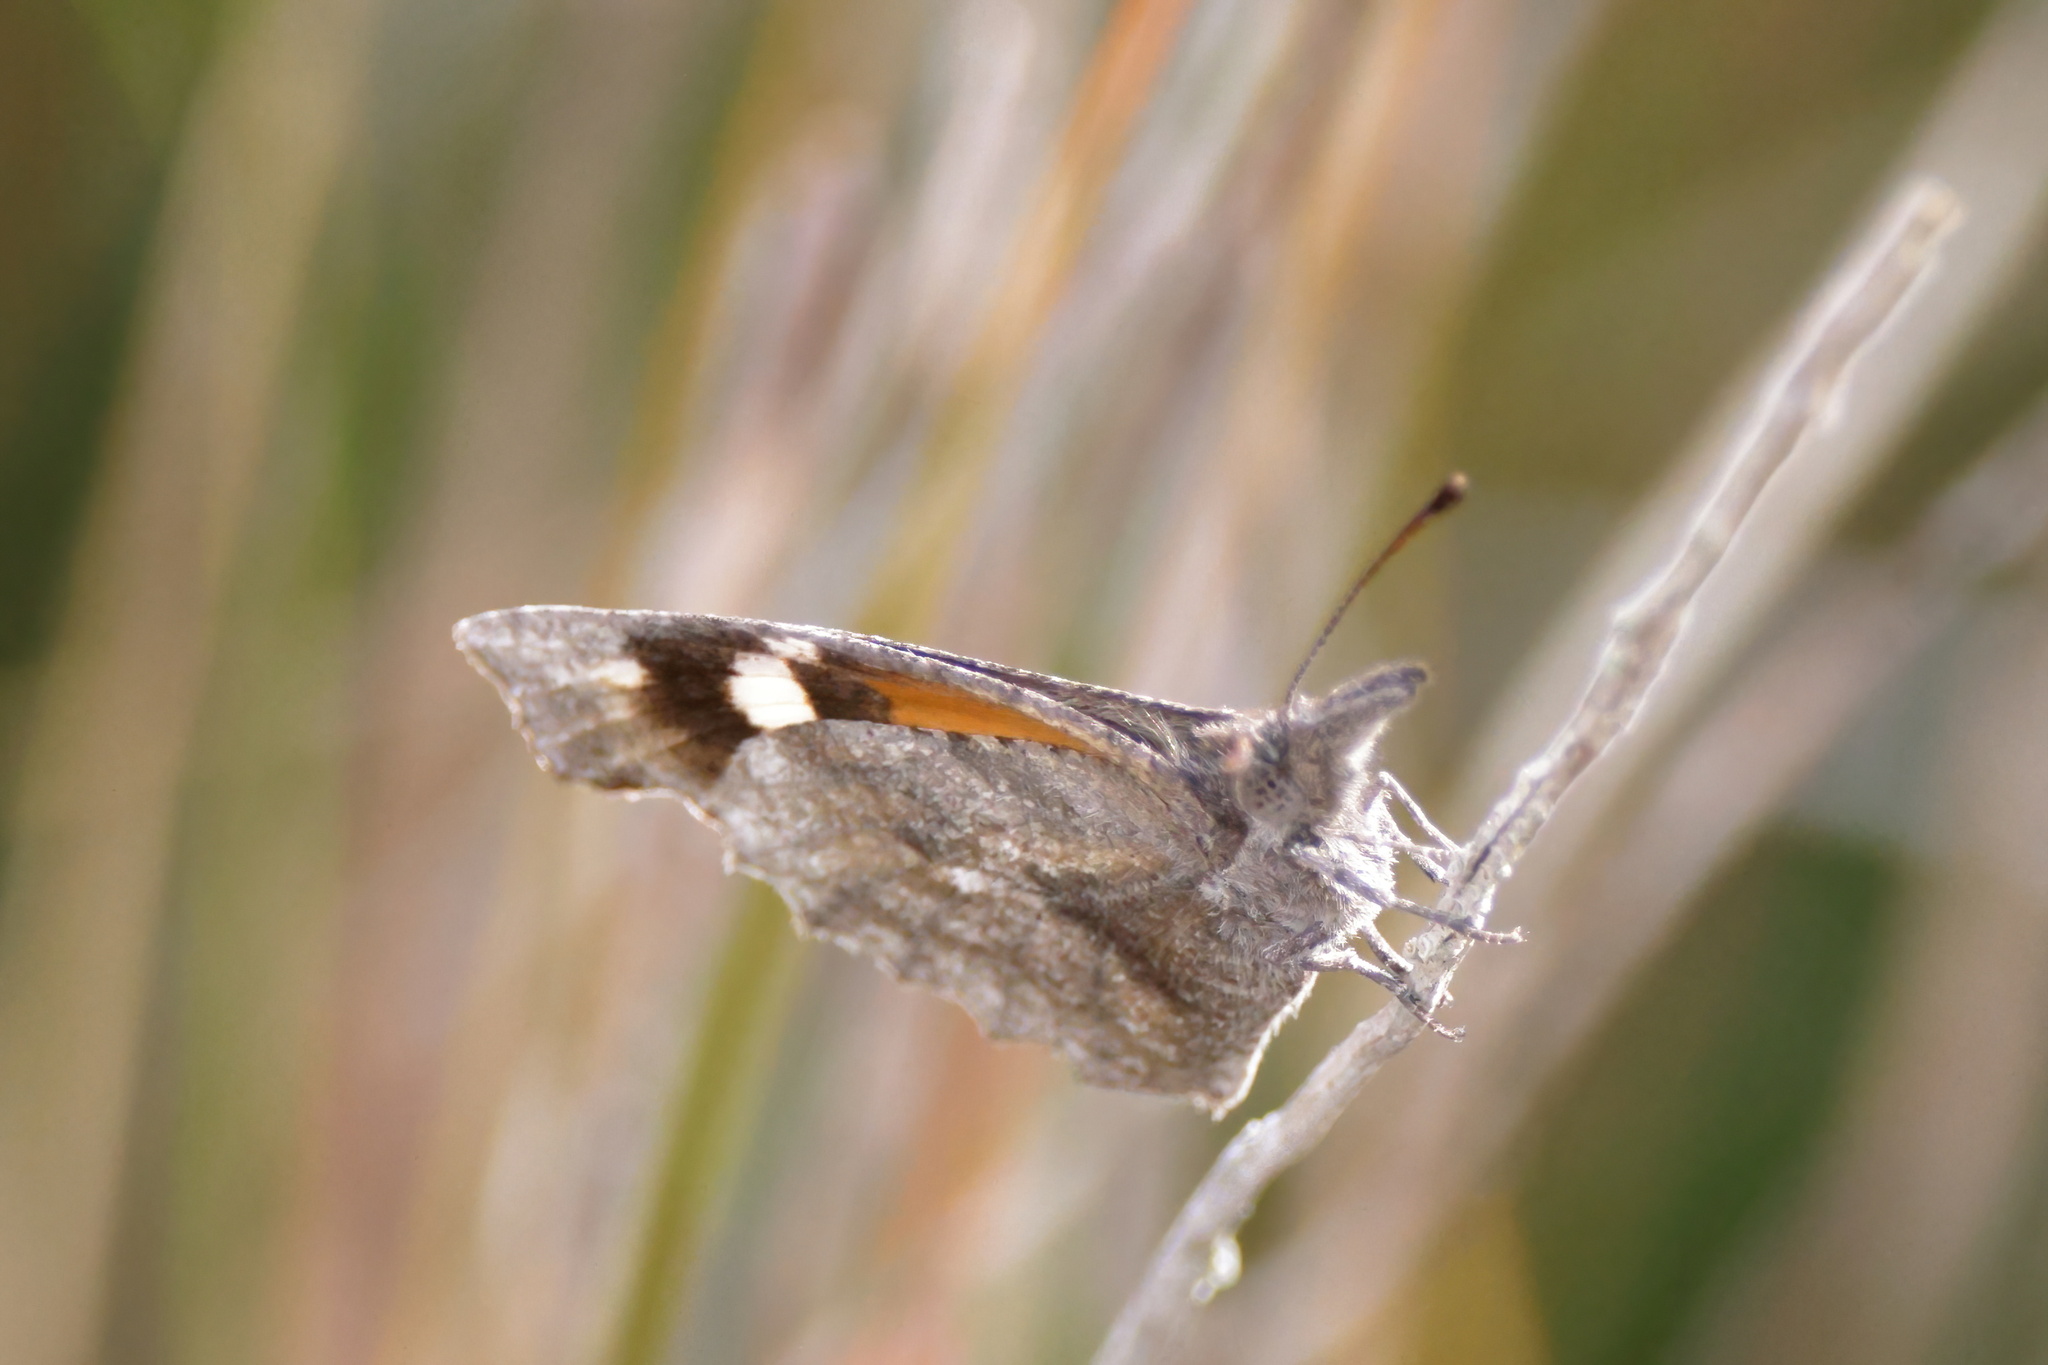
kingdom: Animalia
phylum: Arthropoda
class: Insecta
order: Lepidoptera
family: Nymphalidae
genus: Libytheana
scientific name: Libytheana carinenta
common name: American snout
